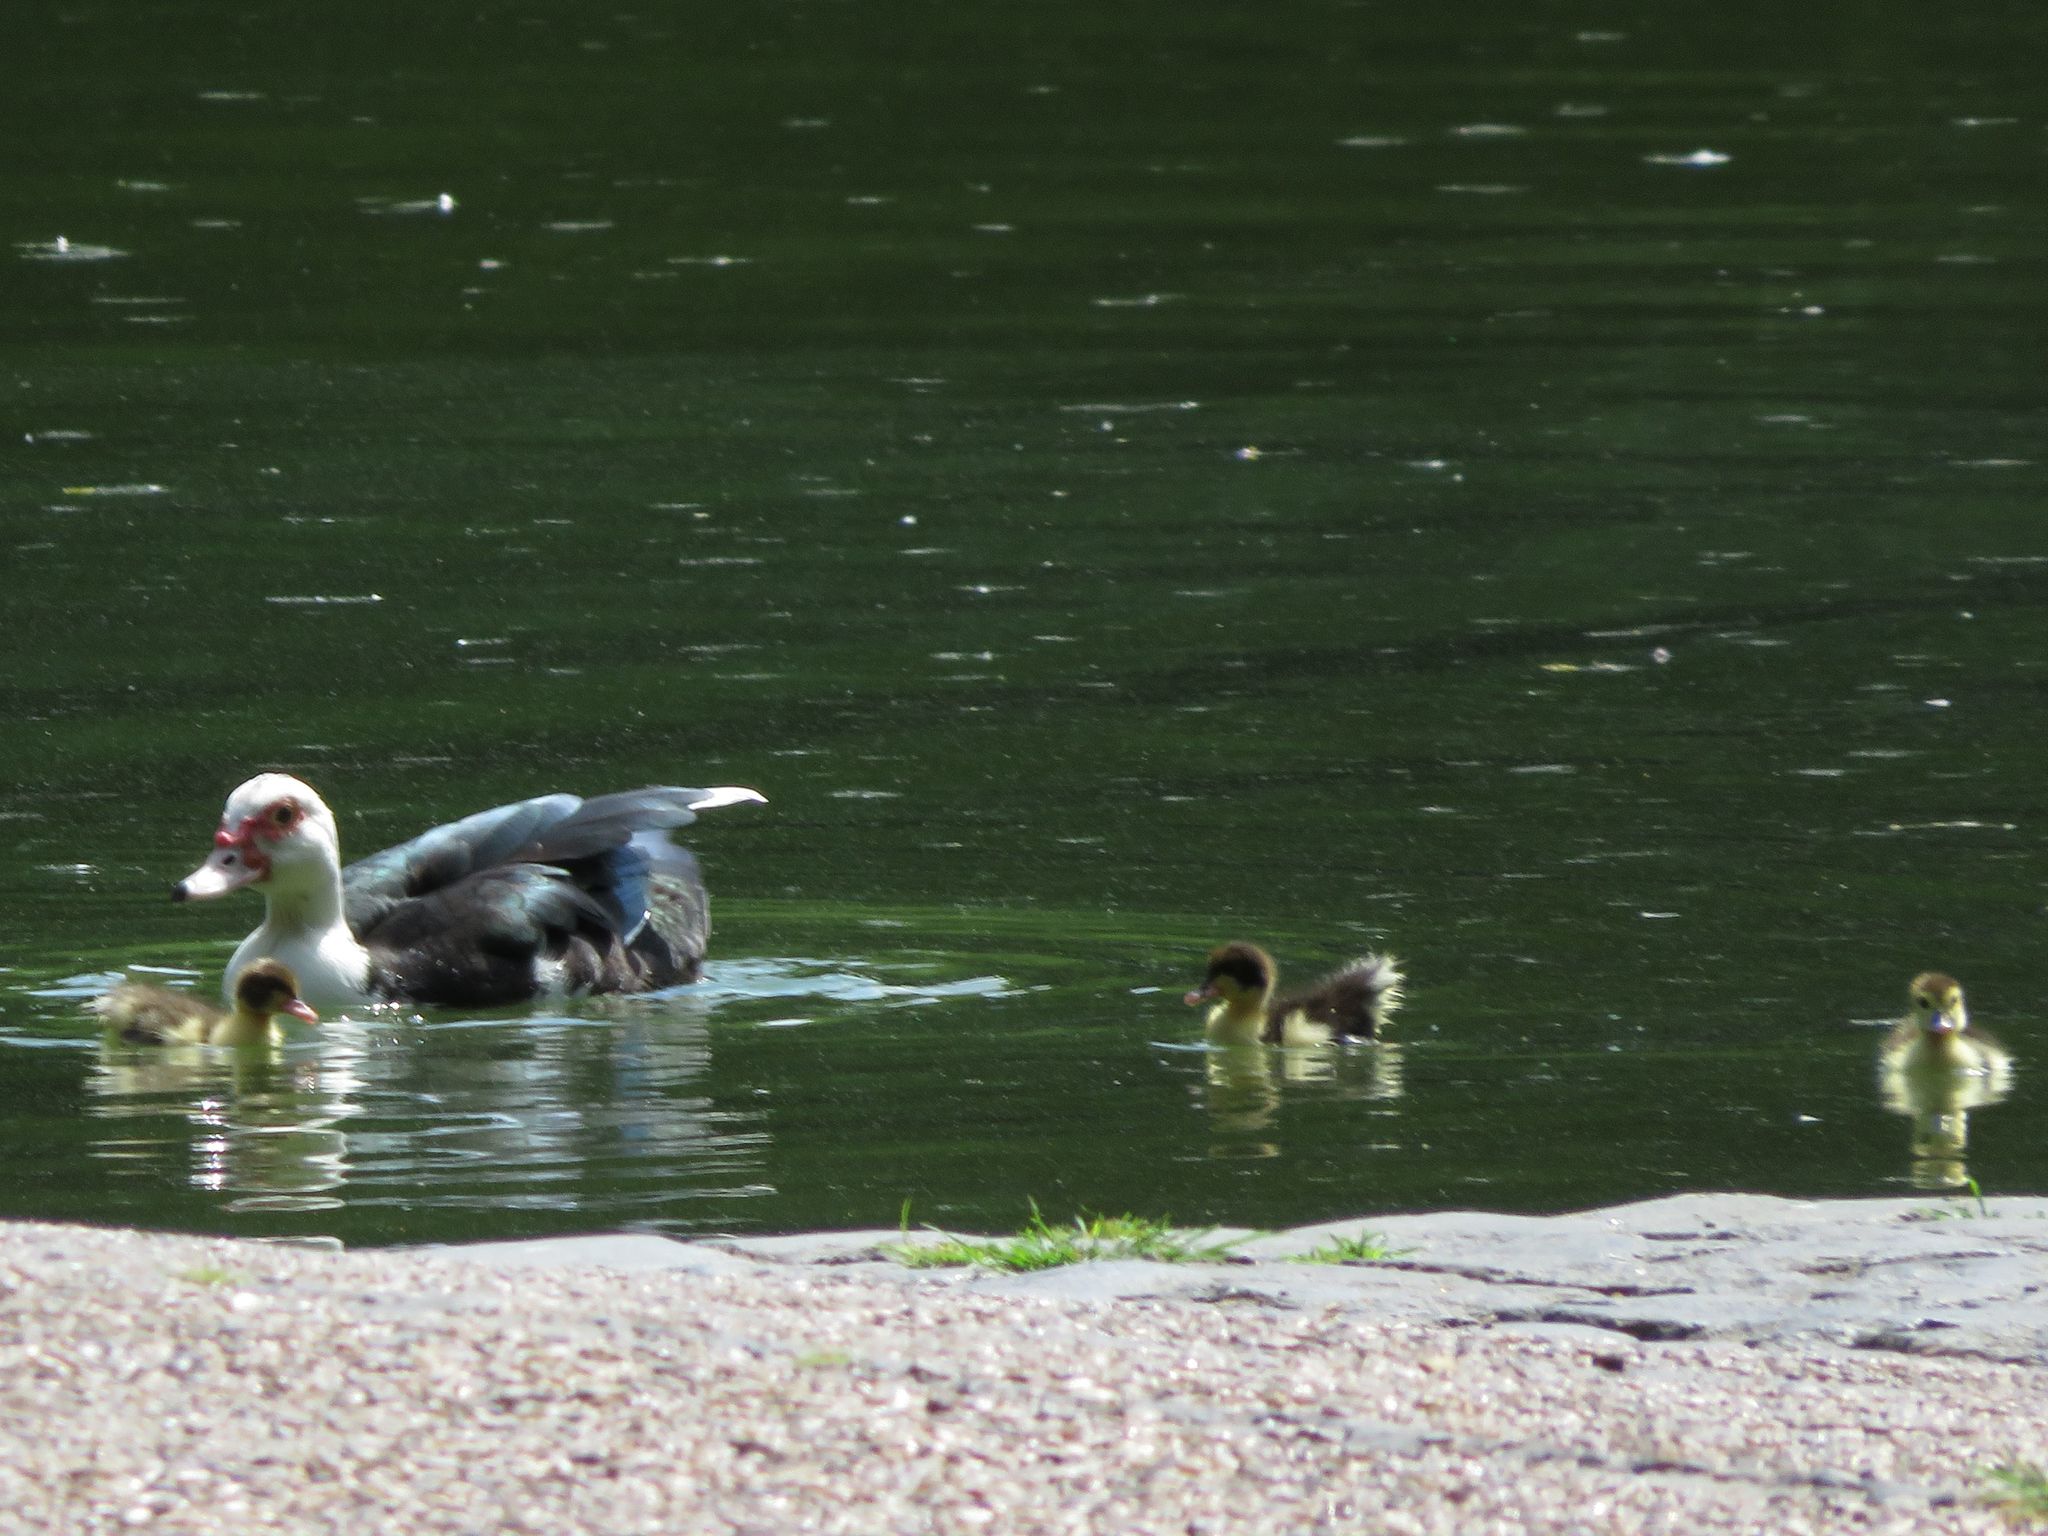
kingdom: Animalia
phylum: Chordata
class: Aves
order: Anseriformes
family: Anatidae
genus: Cairina
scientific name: Cairina moschata
